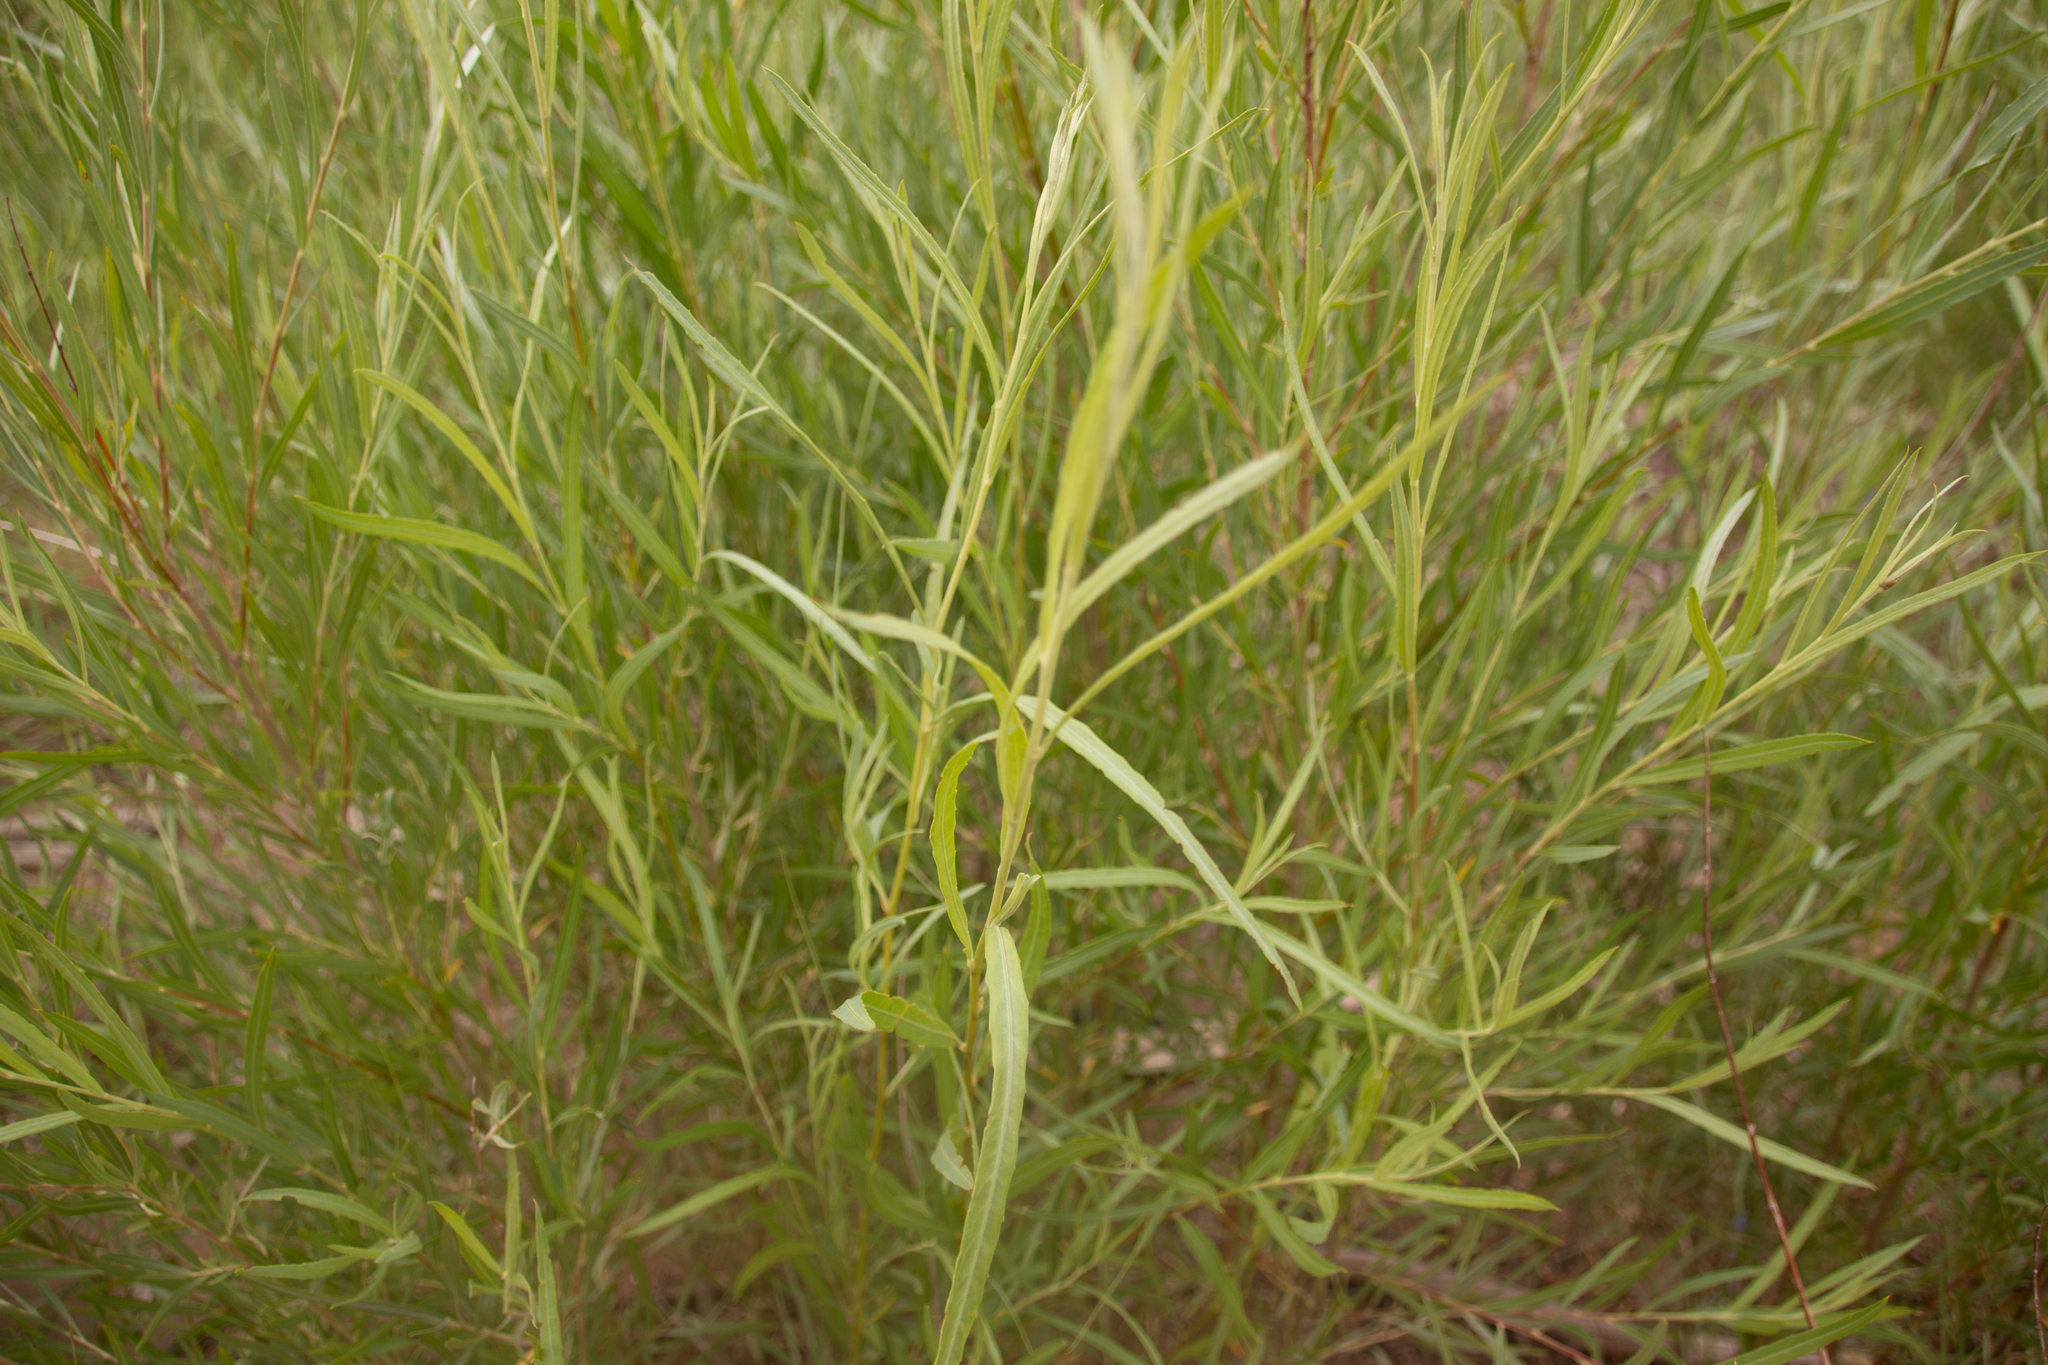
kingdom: Plantae
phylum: Tracheophyta
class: Magnoliopsida
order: Malpighiales
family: Salicaceae
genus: Salix
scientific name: Salix exigua
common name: Coyote willow
